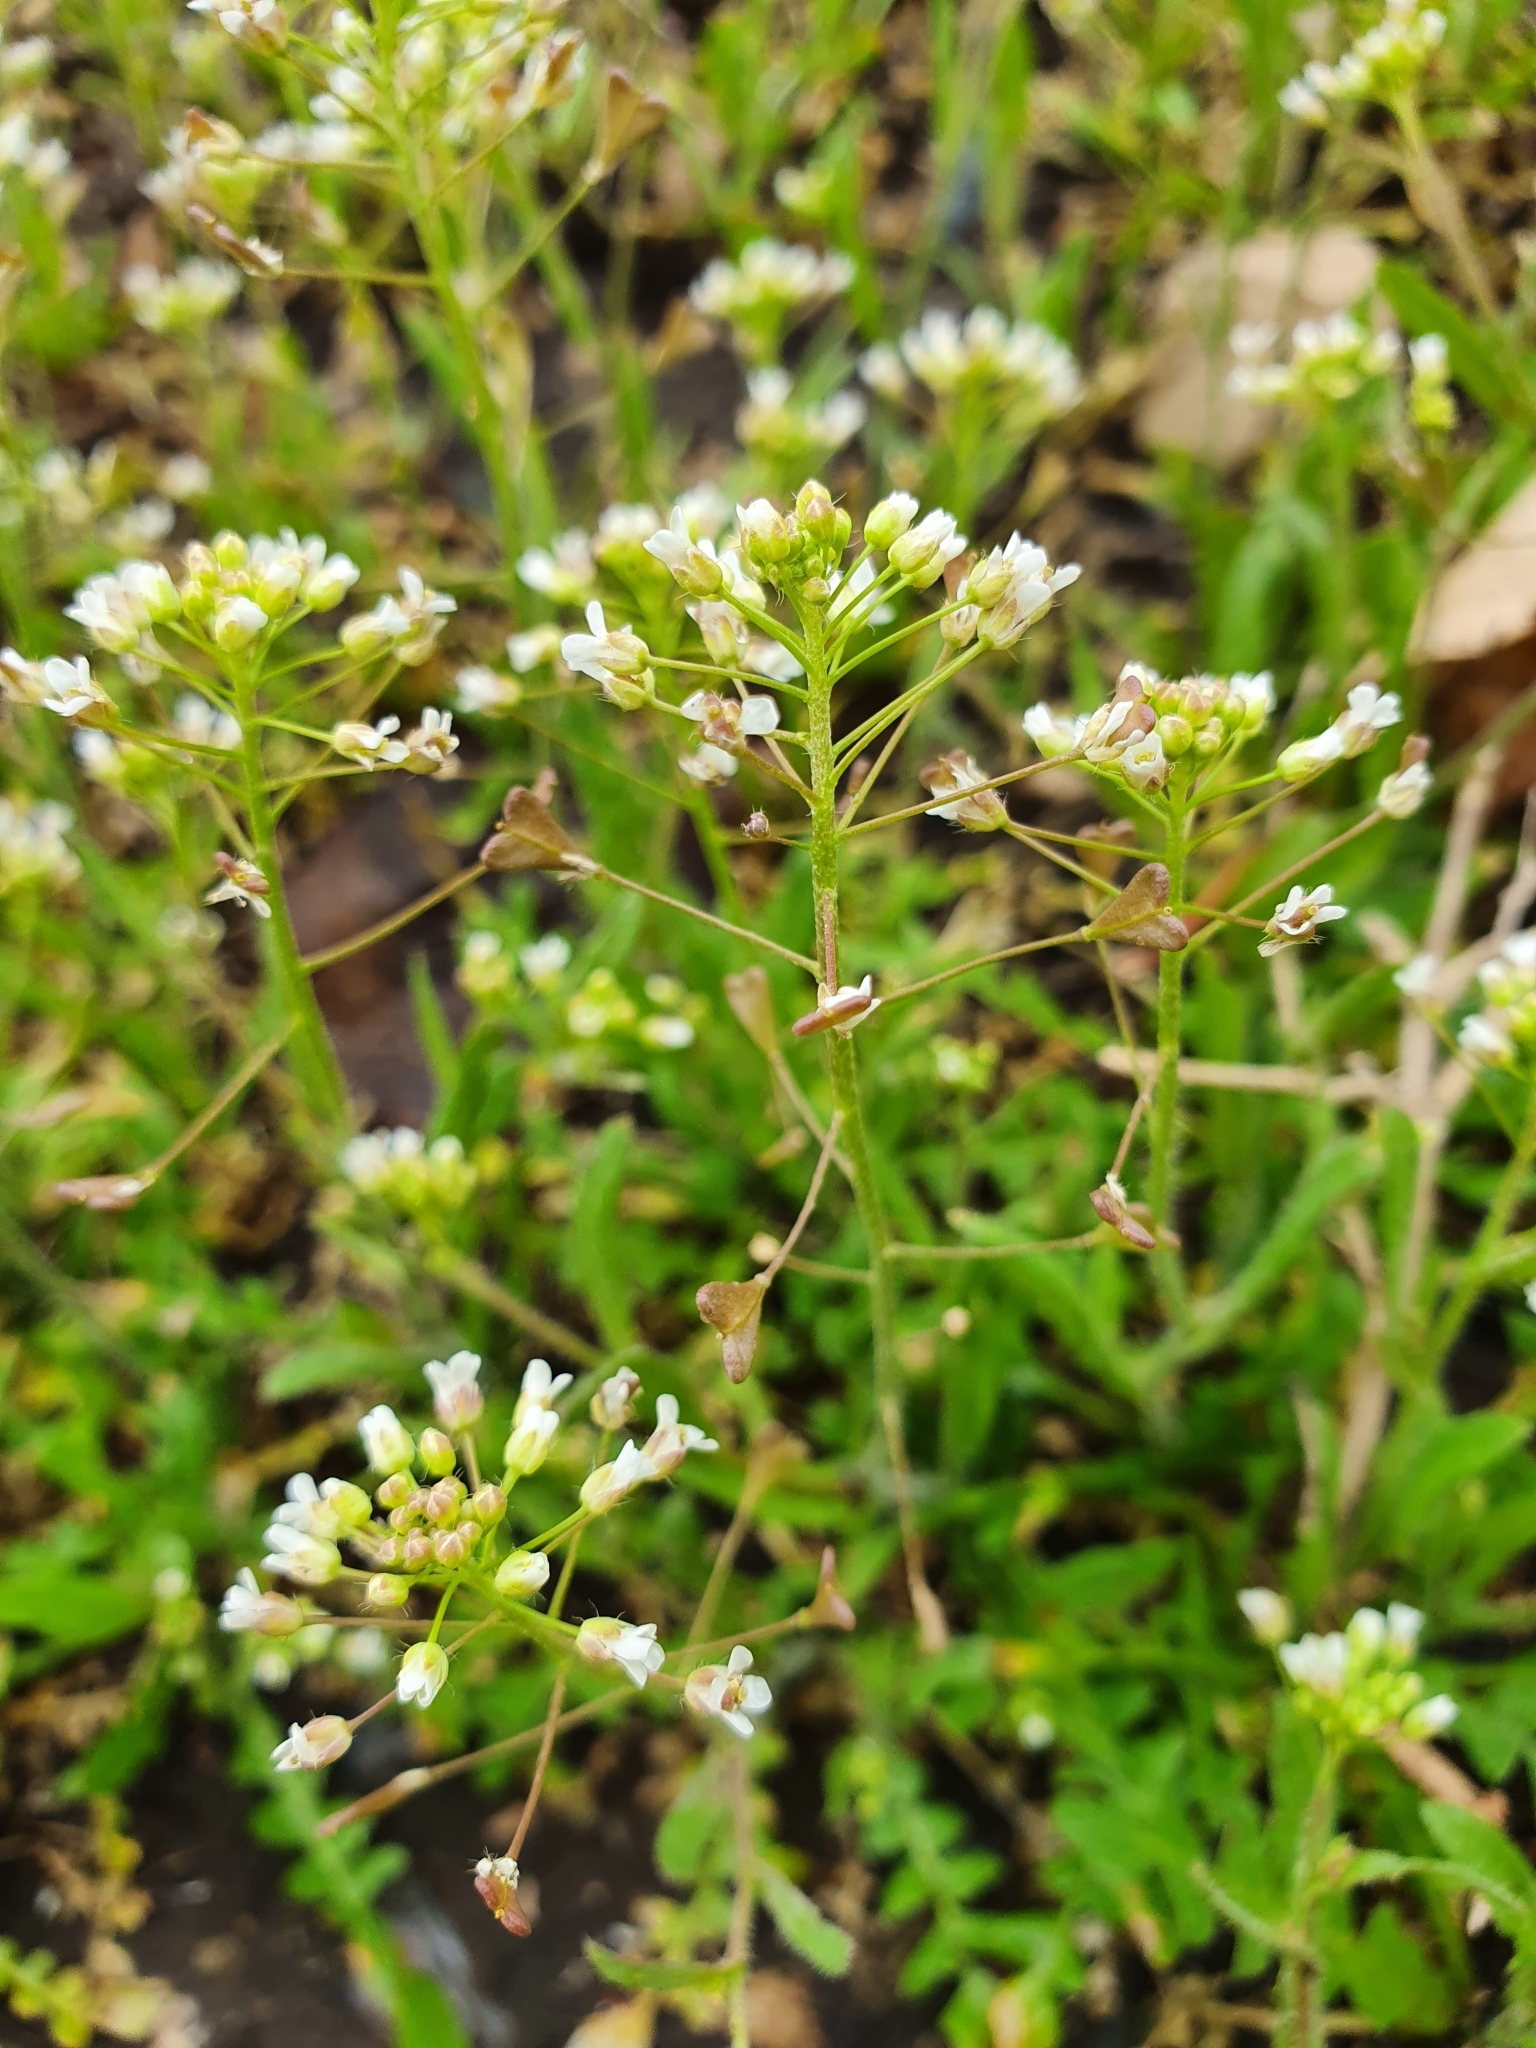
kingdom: Plantae
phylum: Tracheophyta
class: Magnoliopsida
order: Brassicales
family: Brassicaceae
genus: Capsella
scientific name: Capsella bursa-pastoris
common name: Shepherd's purse
